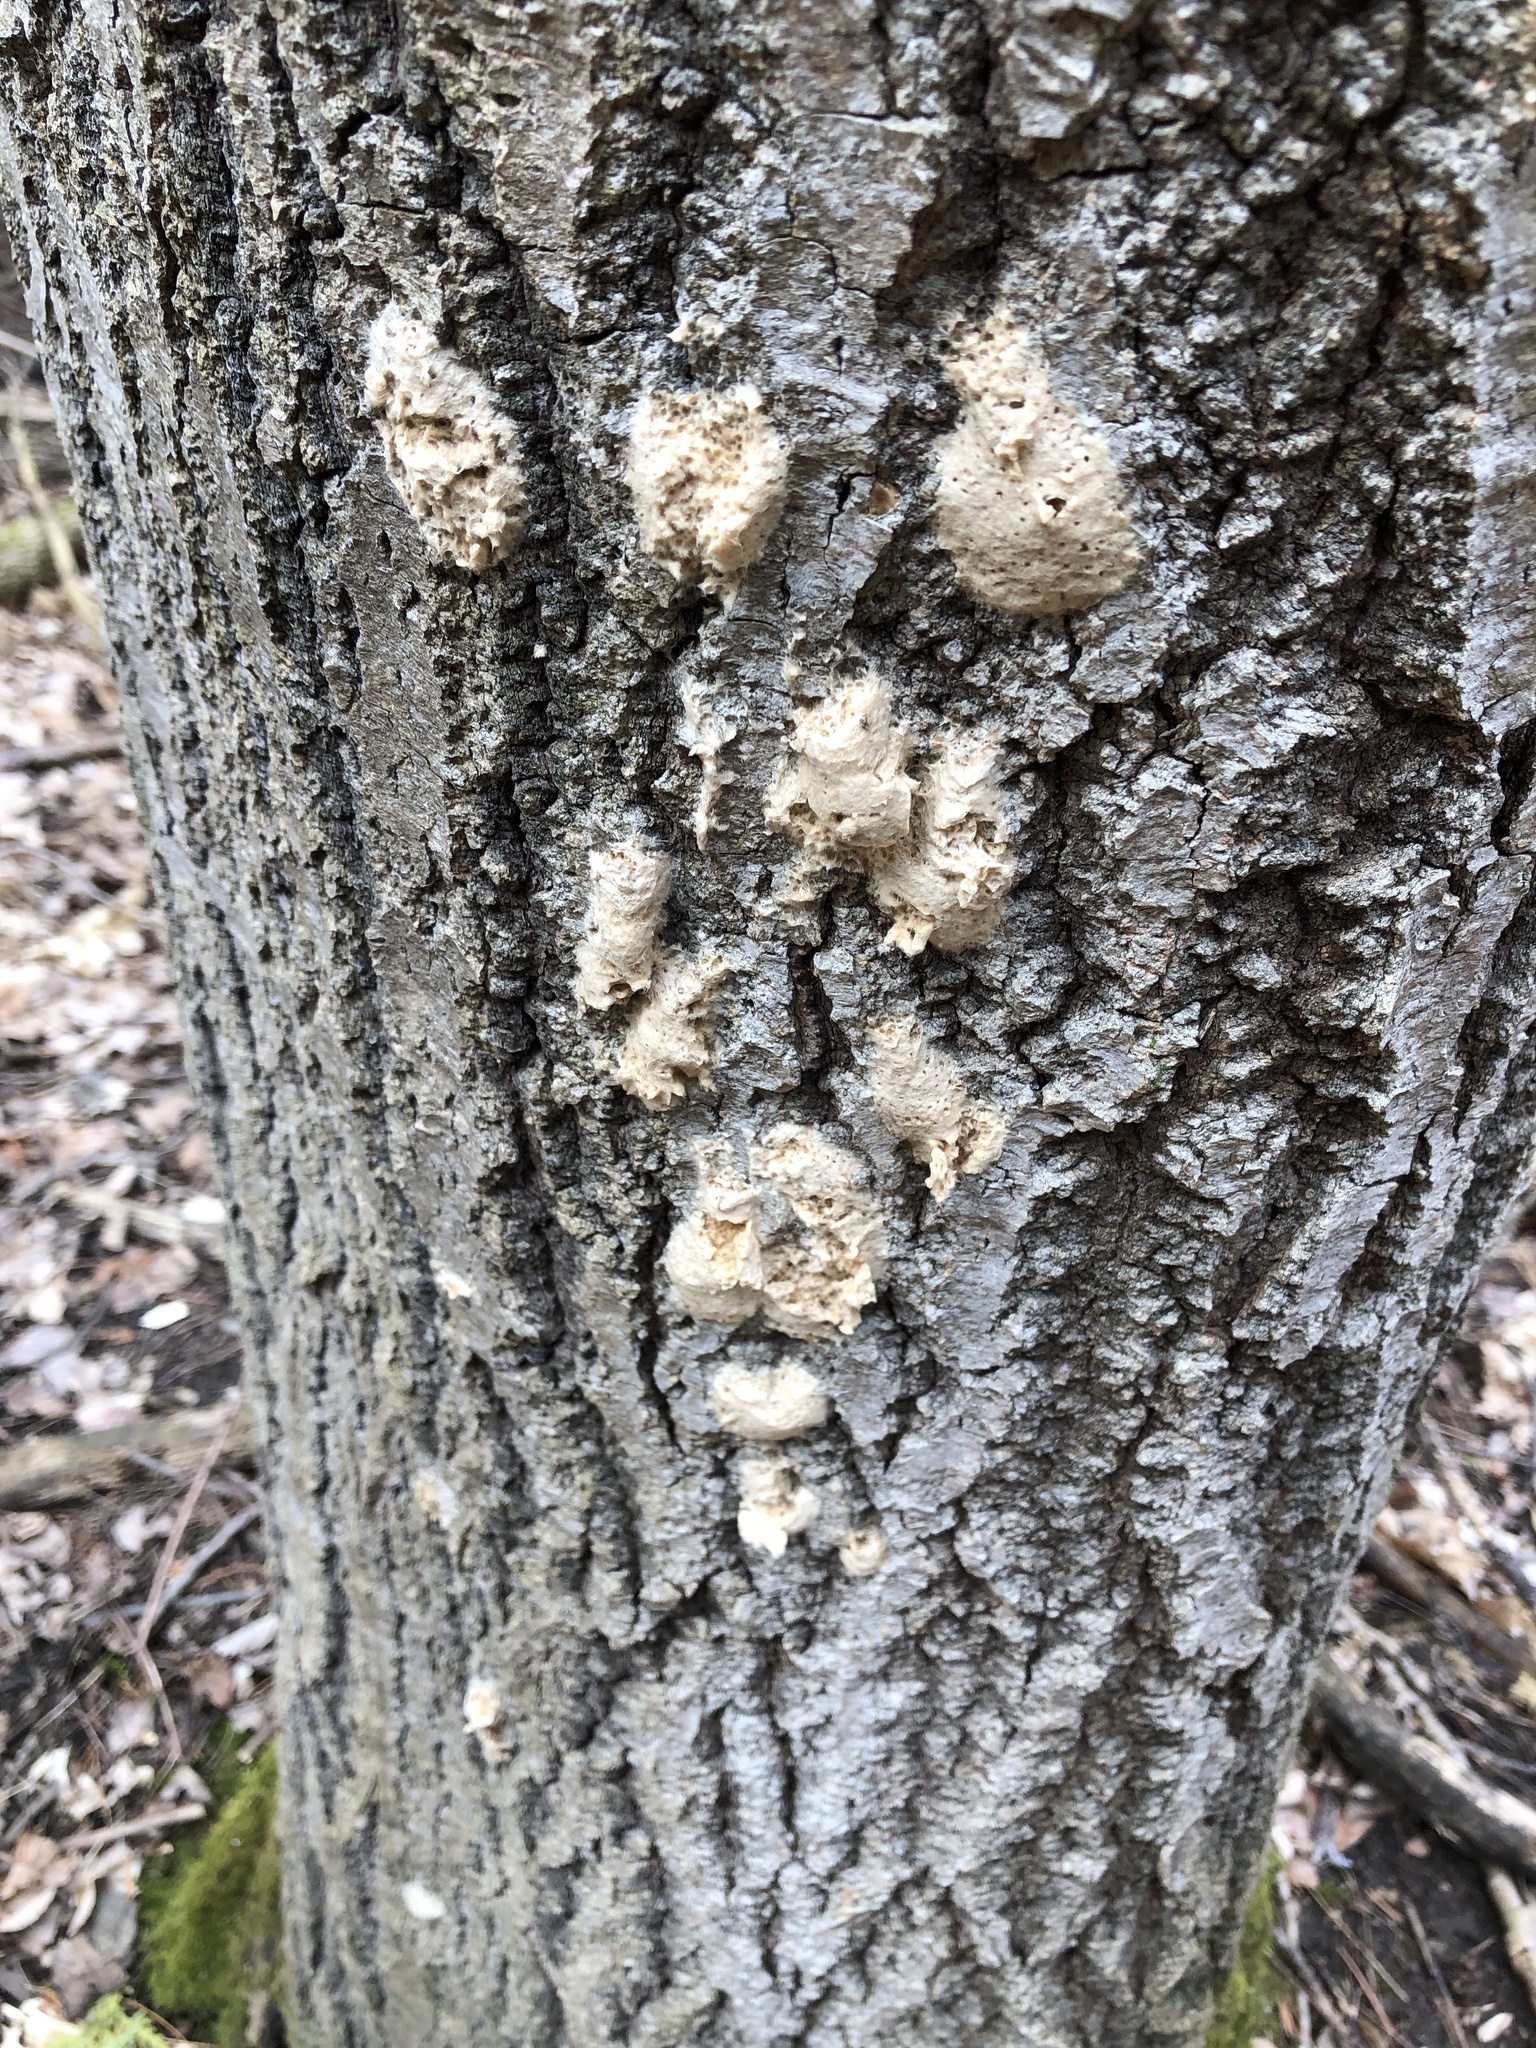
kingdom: Animalia
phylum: Arthropoda
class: Insecta
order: Lepidoptera
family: Erebidae
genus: Lymantria
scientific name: Lymantria dispar
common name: Gypsy moth
